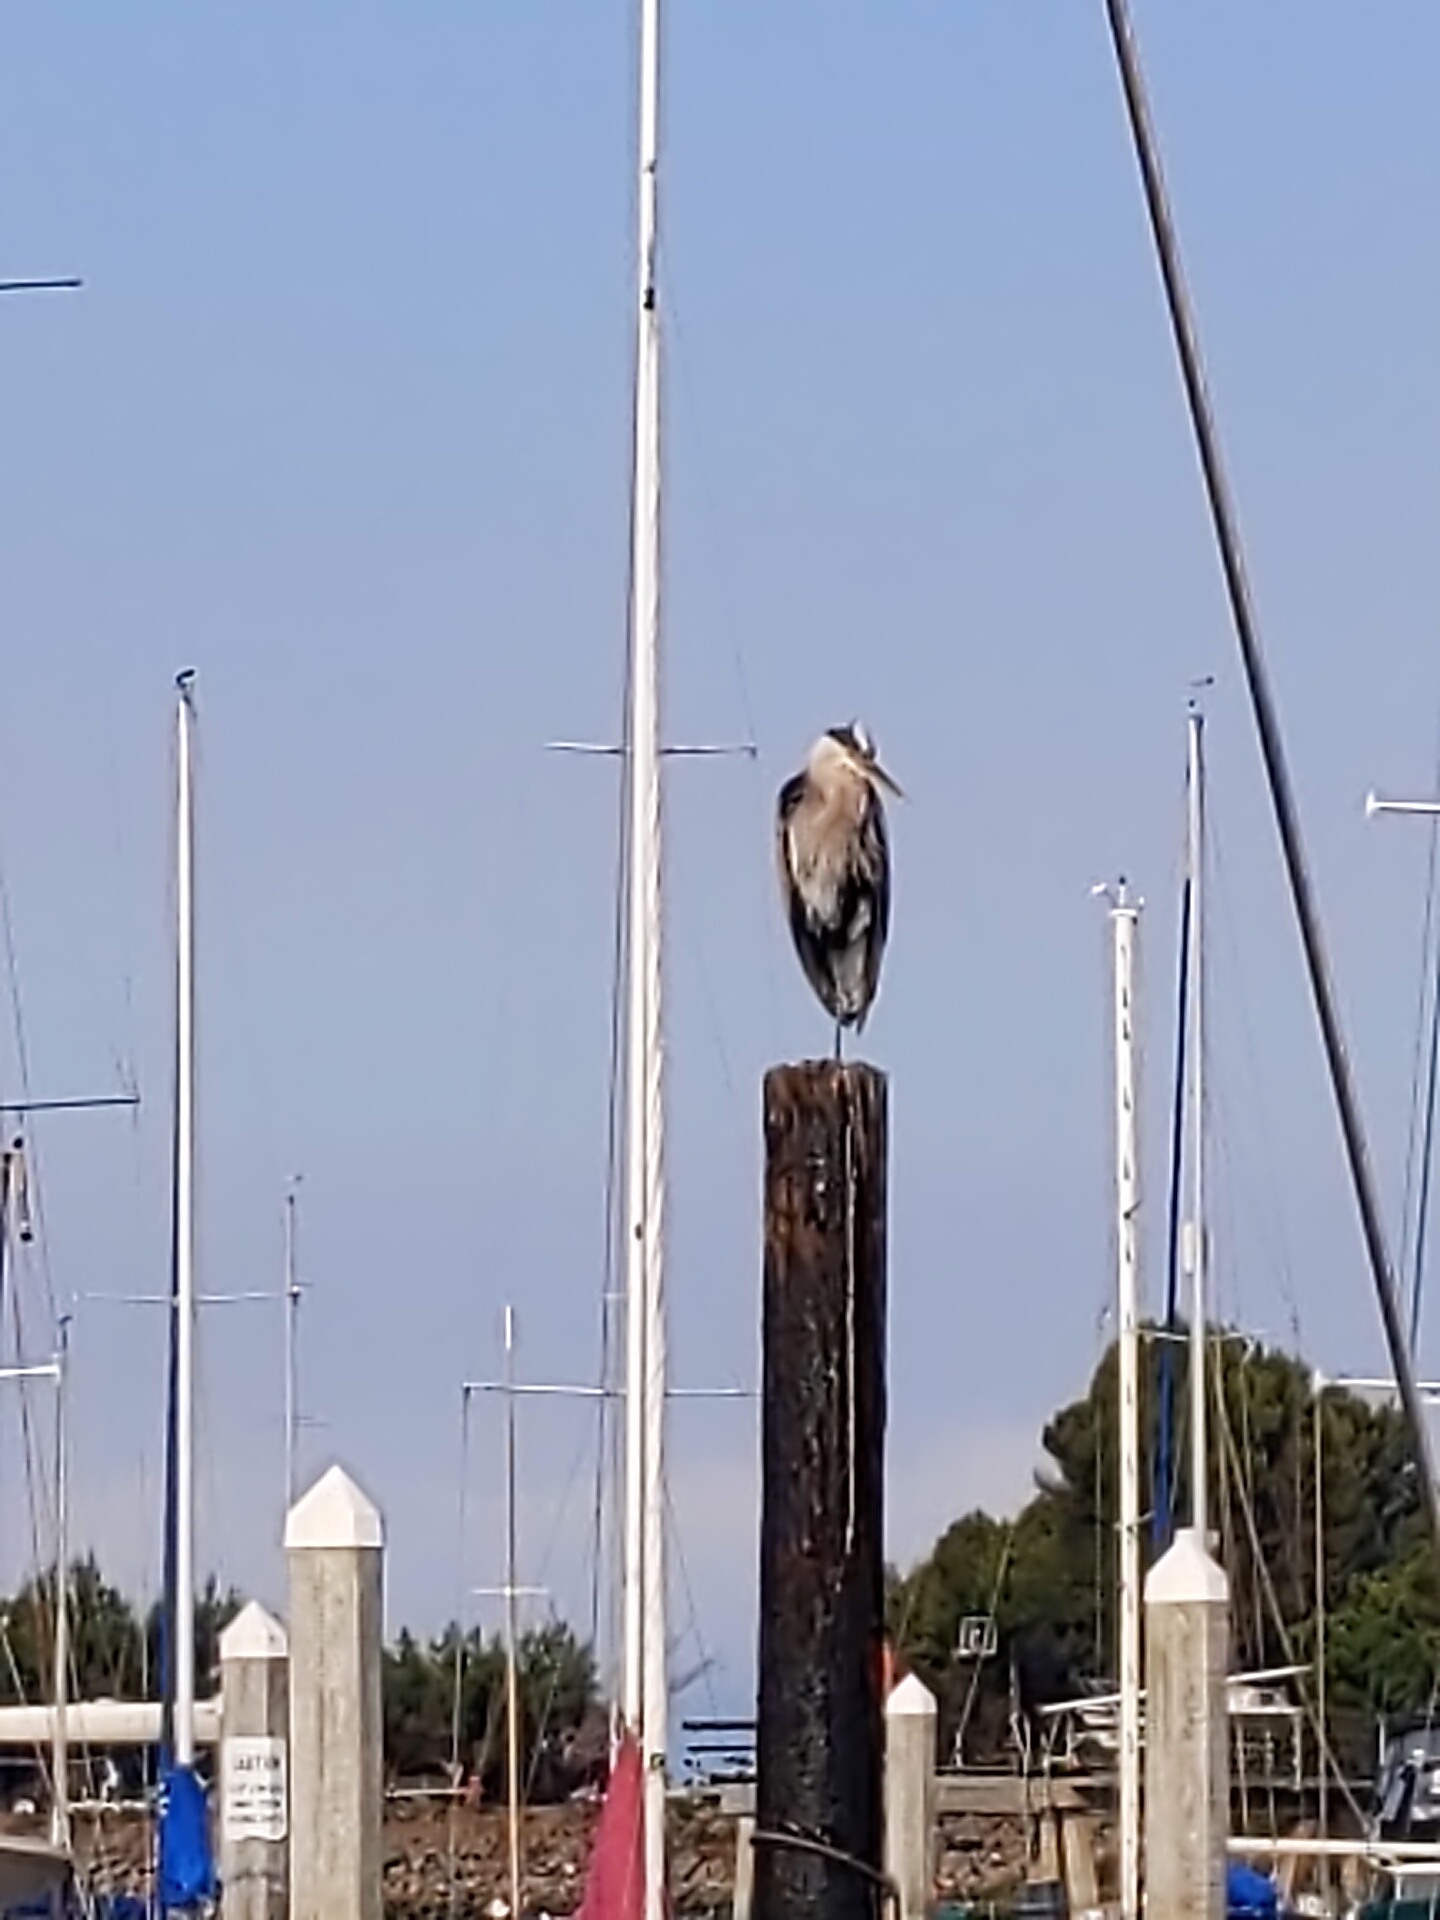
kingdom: Animalia
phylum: Chordata
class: Aves
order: Pelecaniformes
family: Ardeidae
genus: Ardea
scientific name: Ardea herodias
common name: Great blue heron
